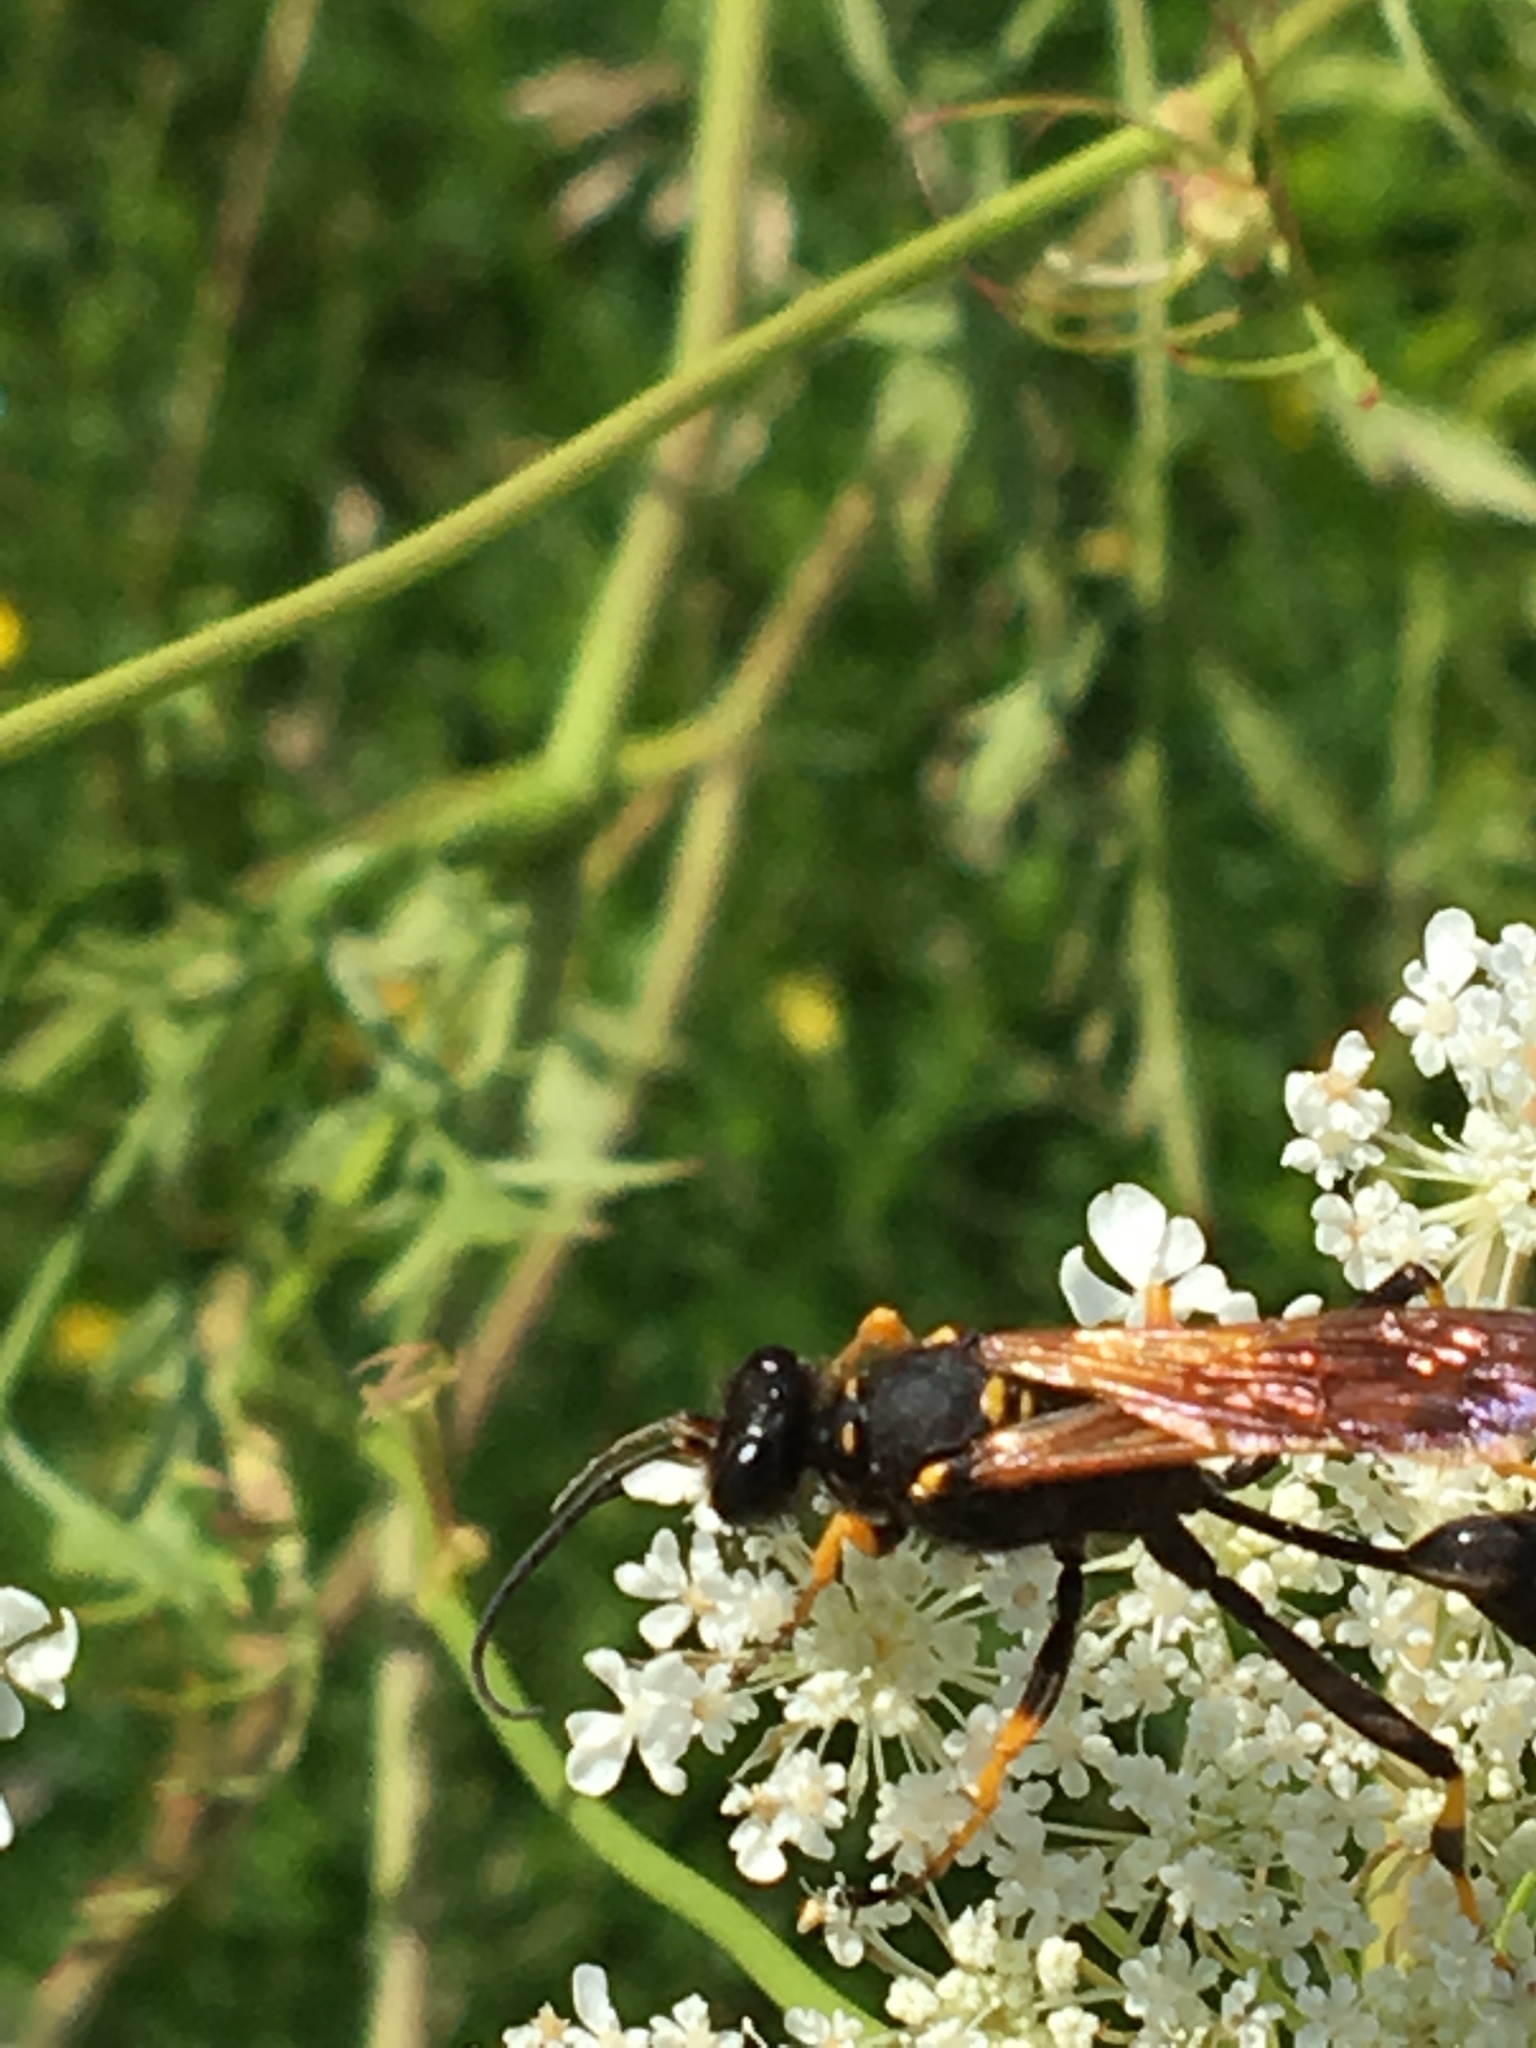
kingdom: Animalia
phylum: Arthropoda
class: Insecta
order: Hymenoptera
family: Sphecidae
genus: Sceliphron
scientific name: Sceliphron caementarium
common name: Mud dauber
